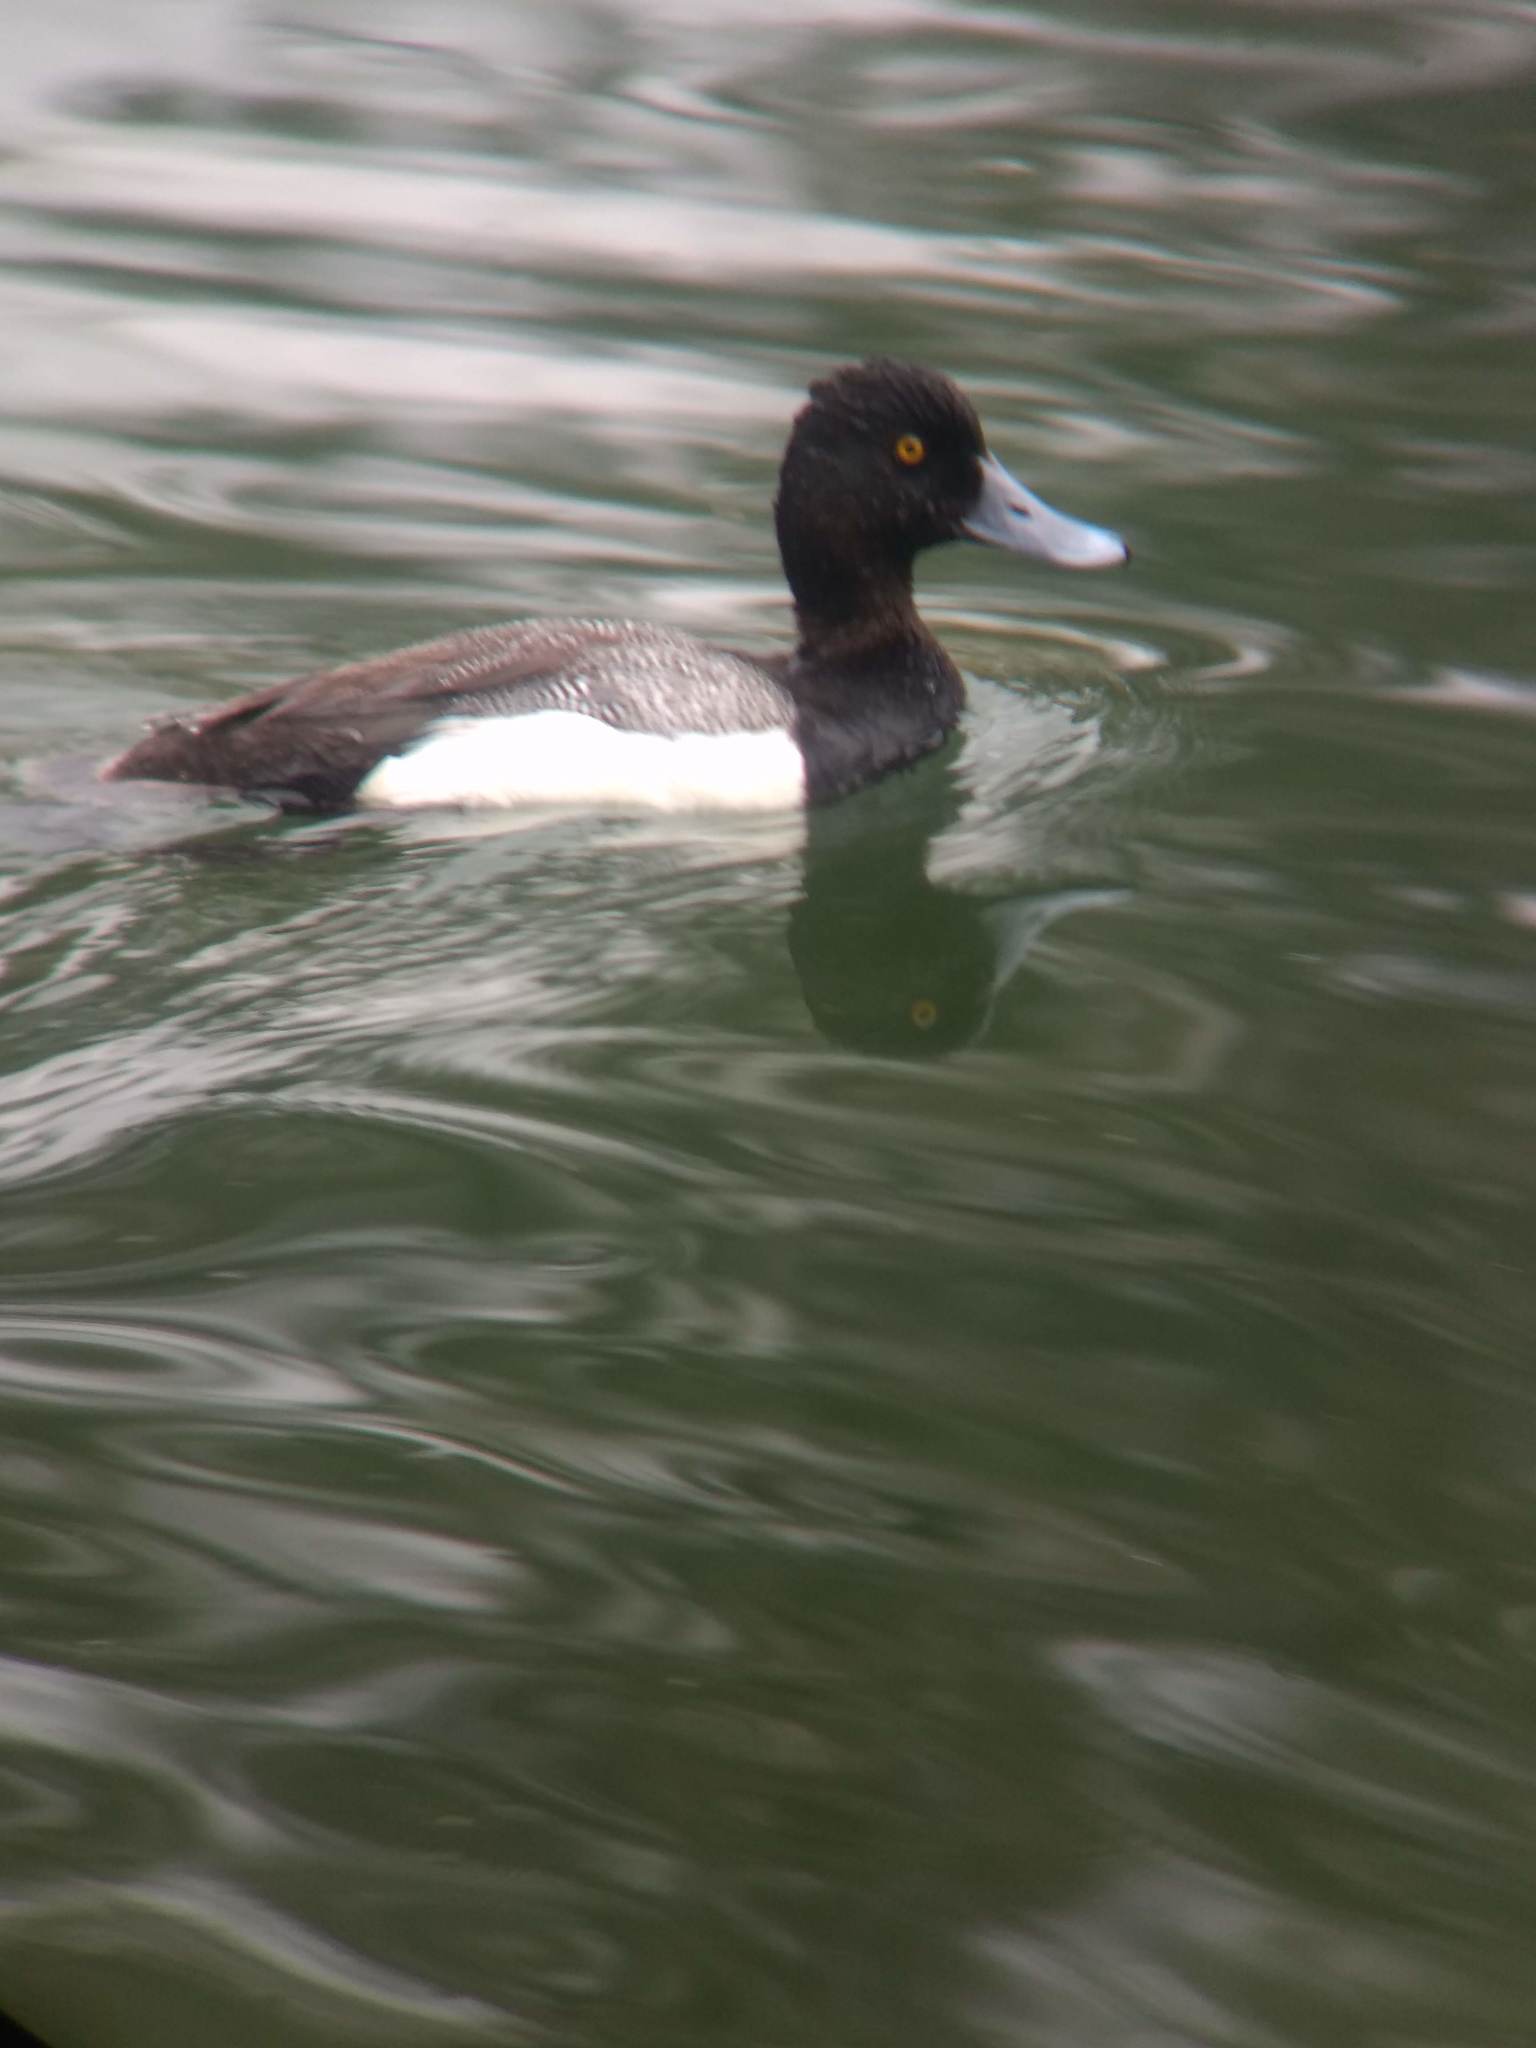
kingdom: Animalia
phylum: Chordata
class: Aves
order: Anseriformes
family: Anatidae
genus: Aythya
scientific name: Aythya affinis
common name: Lesser scaup
